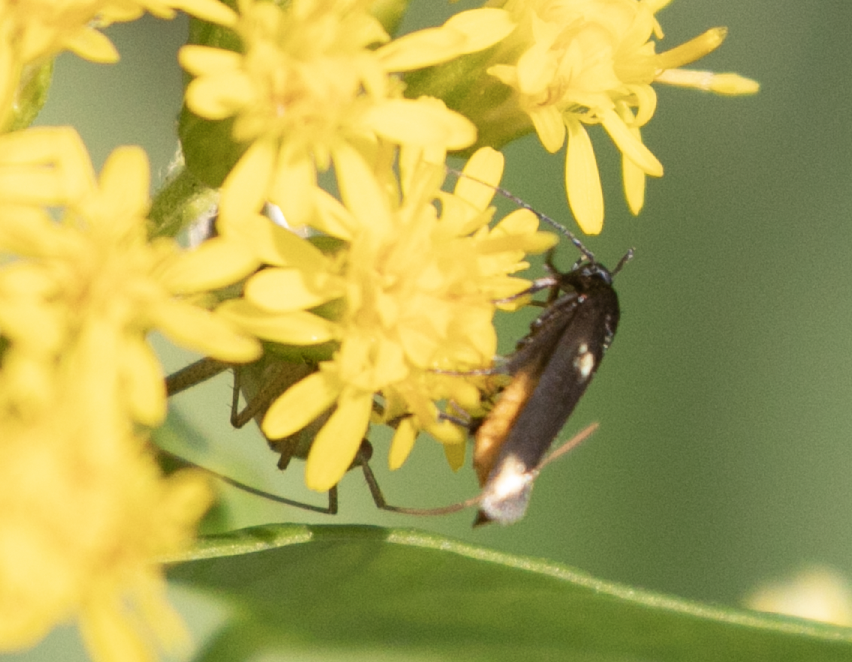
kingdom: Animalia
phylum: Arthropoda
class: Insecta
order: Lepidoptera
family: Scythrididae
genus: Scythris
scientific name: Scythris sinensis
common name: Kentish owlet
